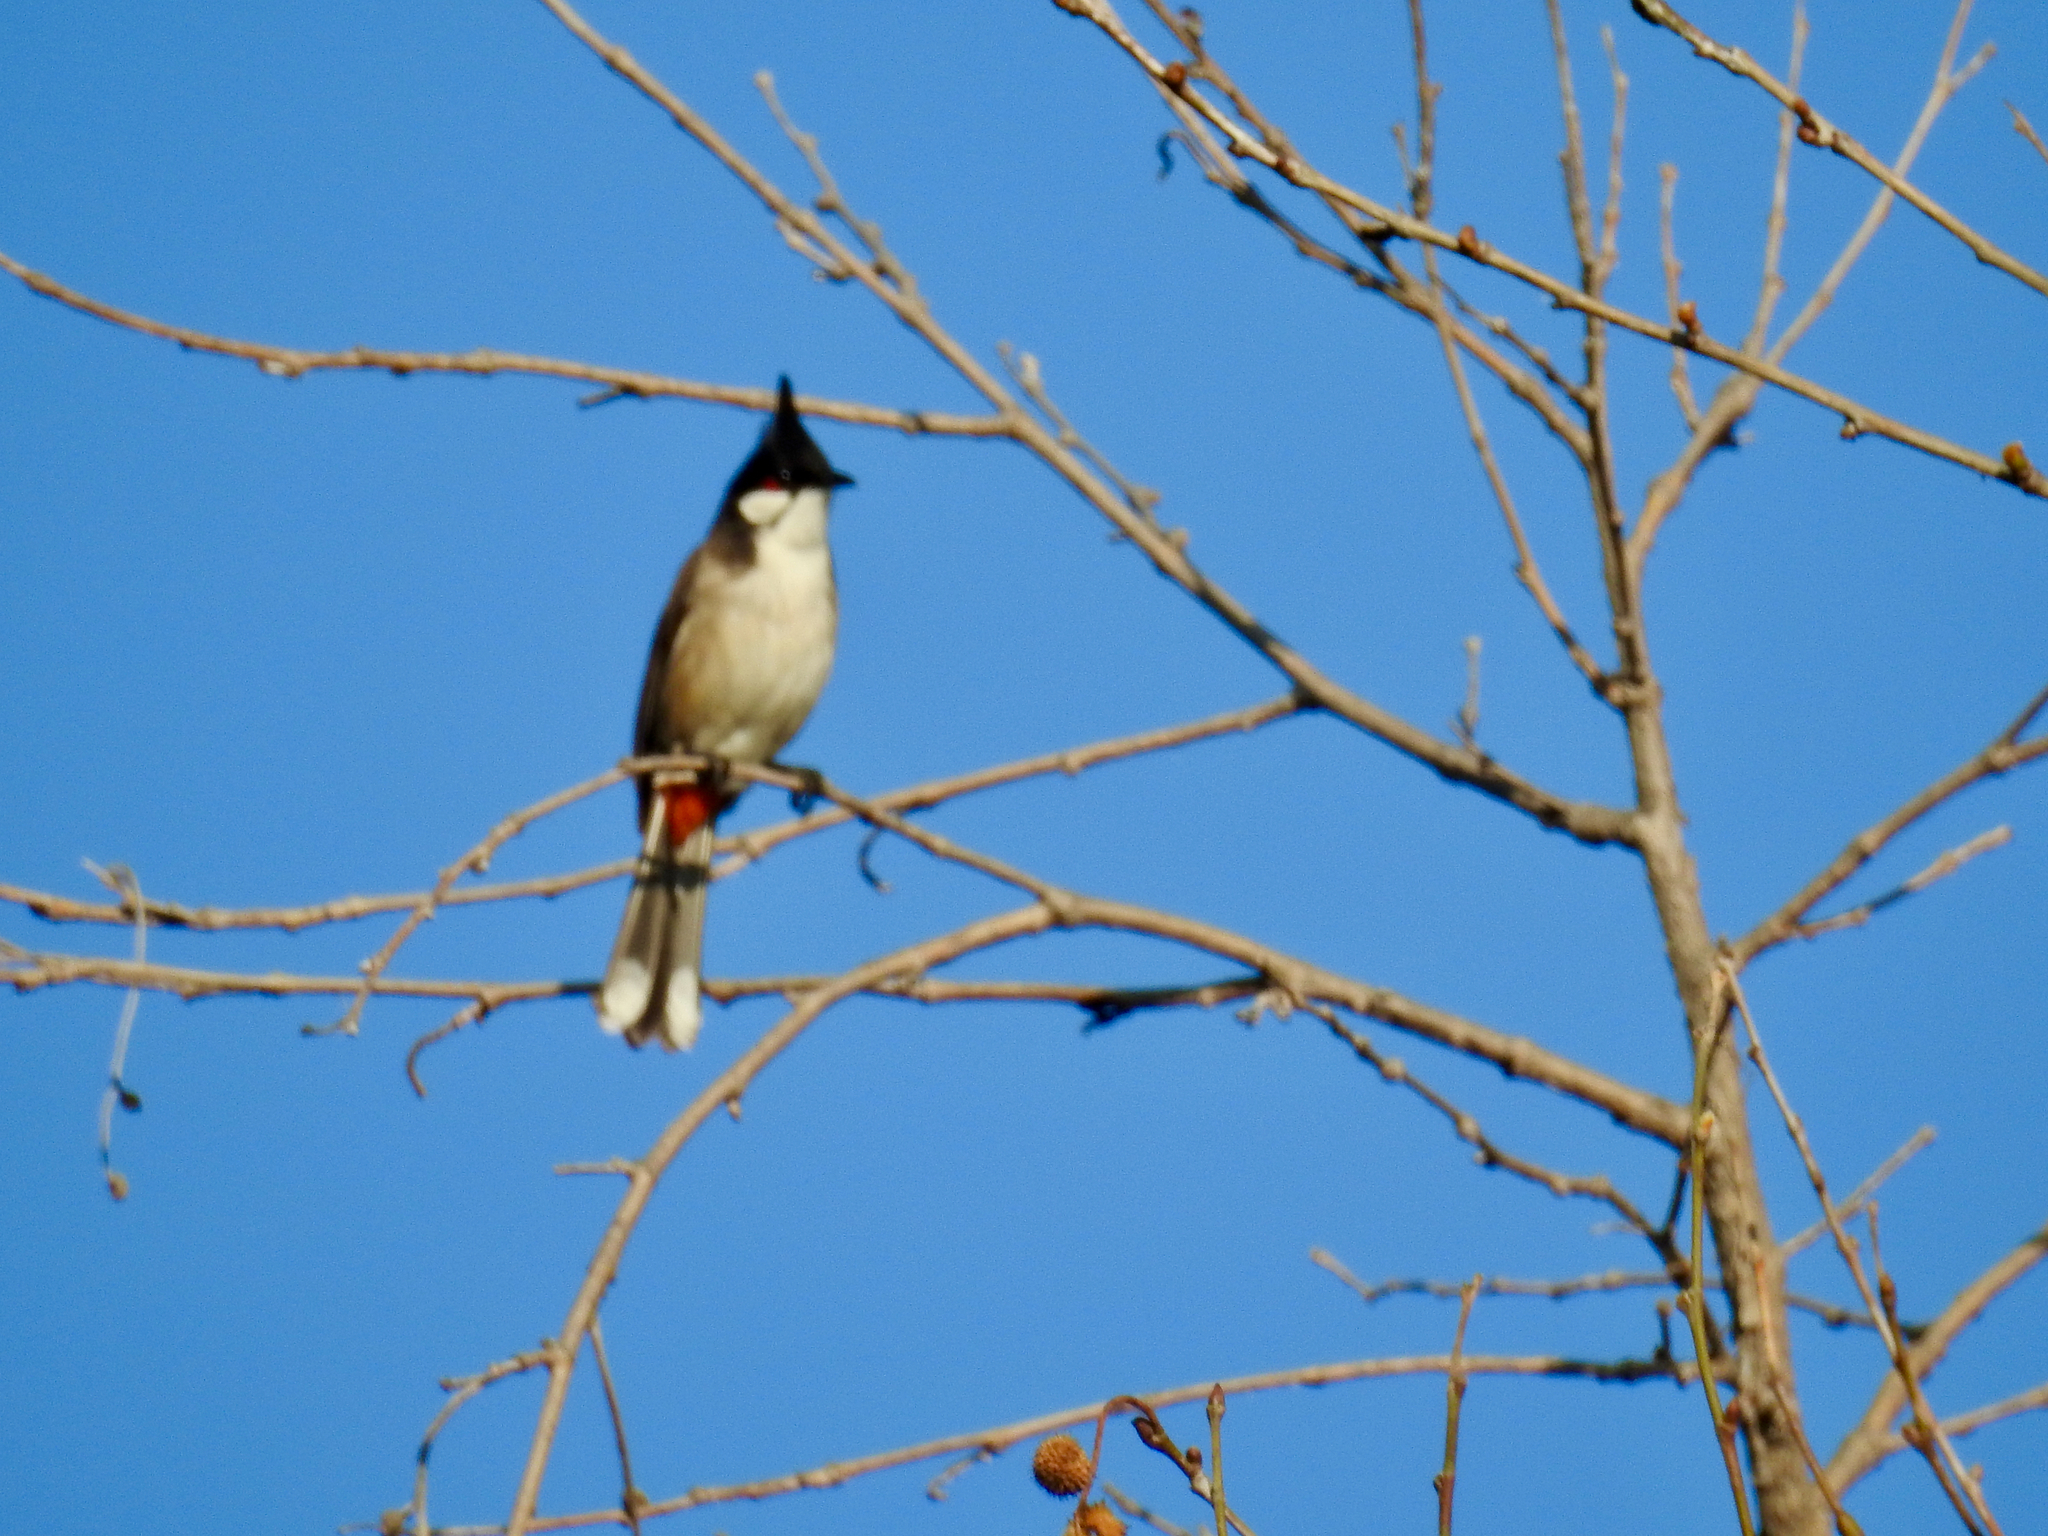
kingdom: Animalia
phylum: Chordata
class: Aves
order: Passeriformes
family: Pycnonotidae
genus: Pycnonotus
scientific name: Pycnonotus jocosus
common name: Red-whiskered bulbul
